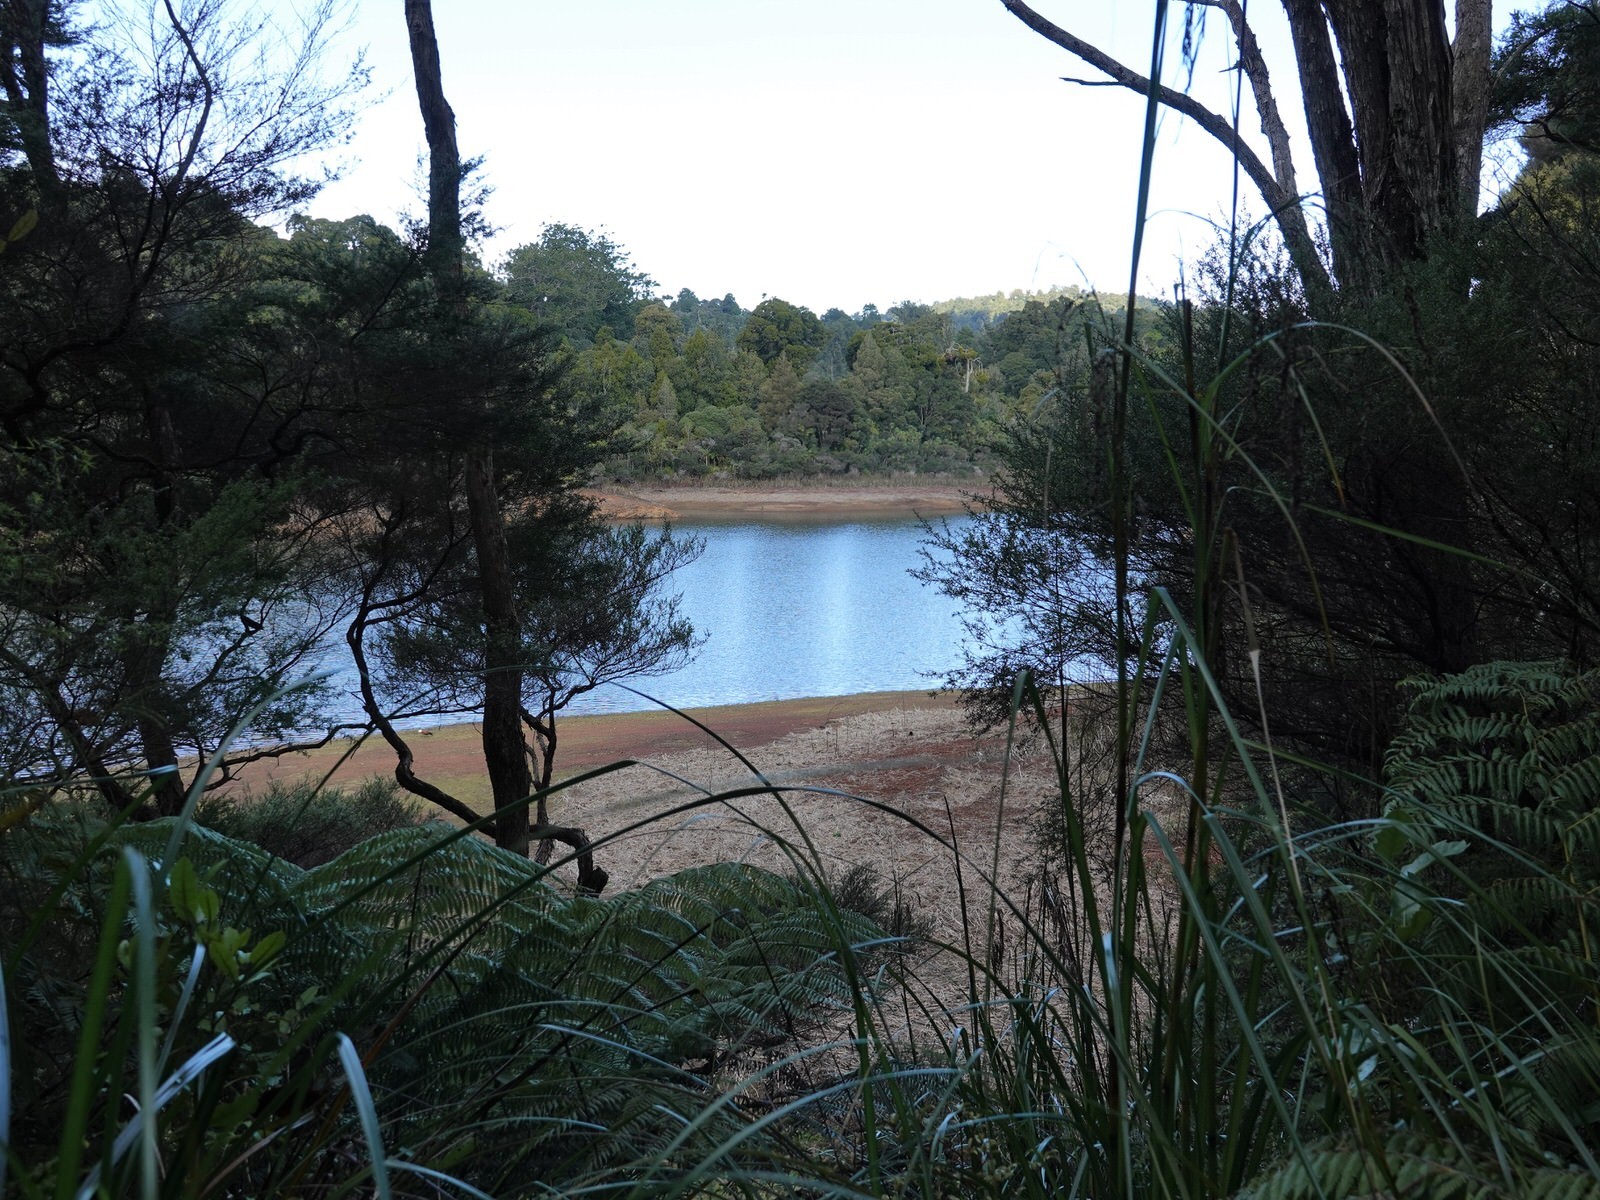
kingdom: Animalia
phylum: Chordata
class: Aves
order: Anseriformes
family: Anatidae
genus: Tadorna
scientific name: Tadorna variegata
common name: Paradise shelduck
